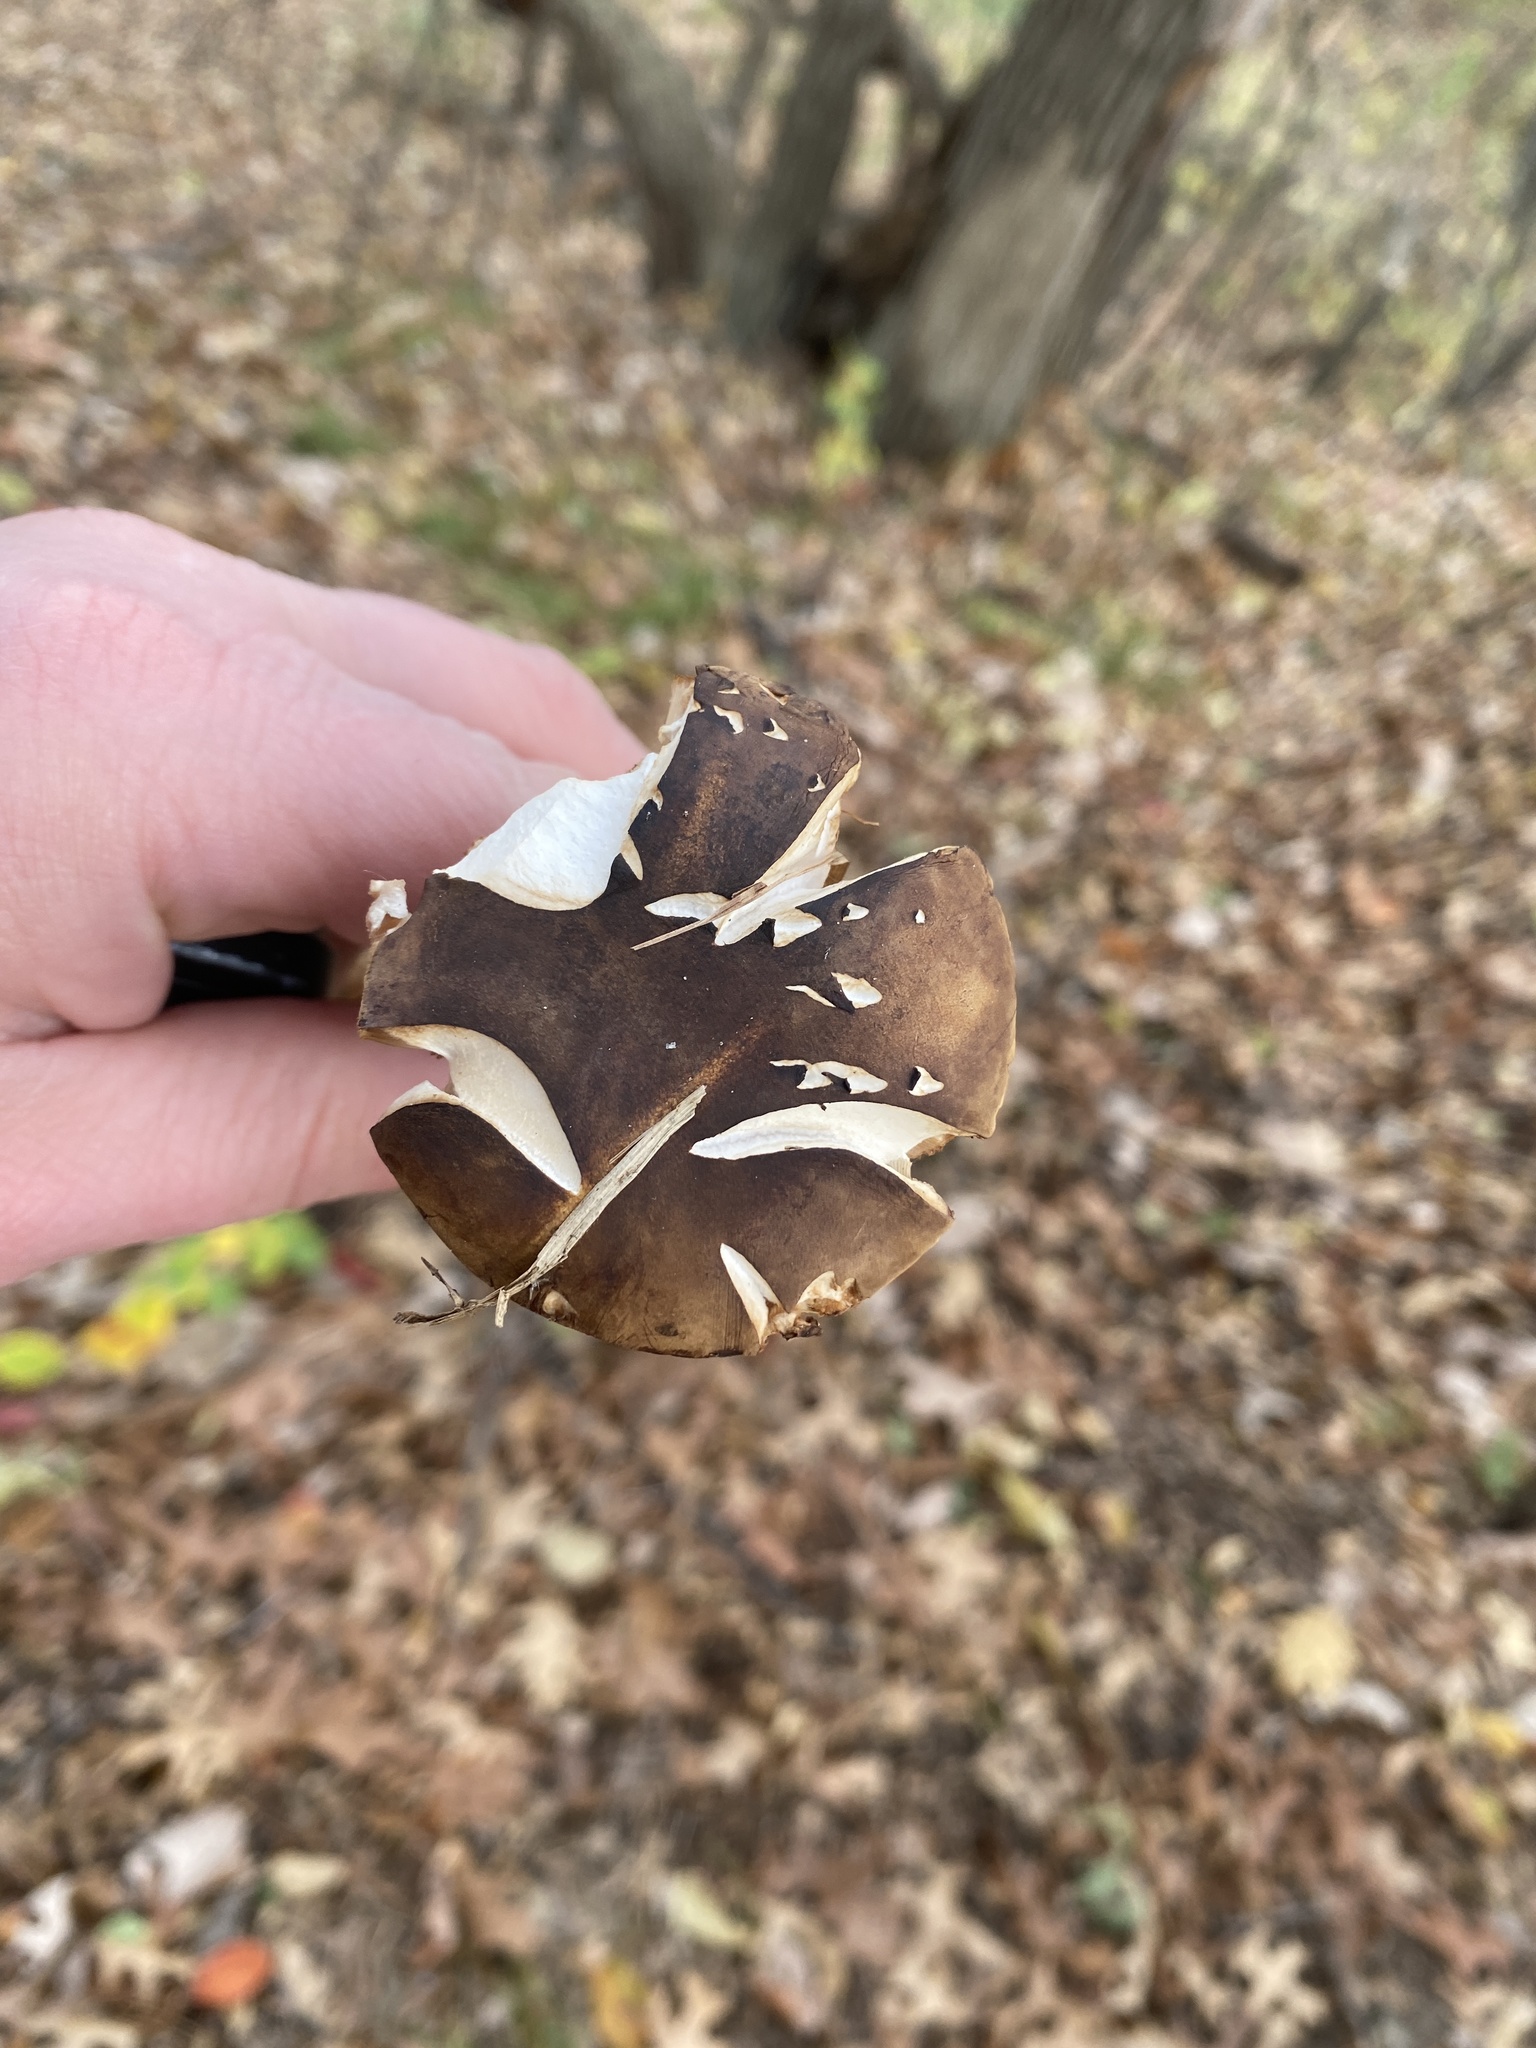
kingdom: Fungi
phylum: Basidiomycota
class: Agaricomycetes
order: Boletales
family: Boletaceae
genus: Tylopilus
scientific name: Tylopilus felleus
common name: Bitter bolete
